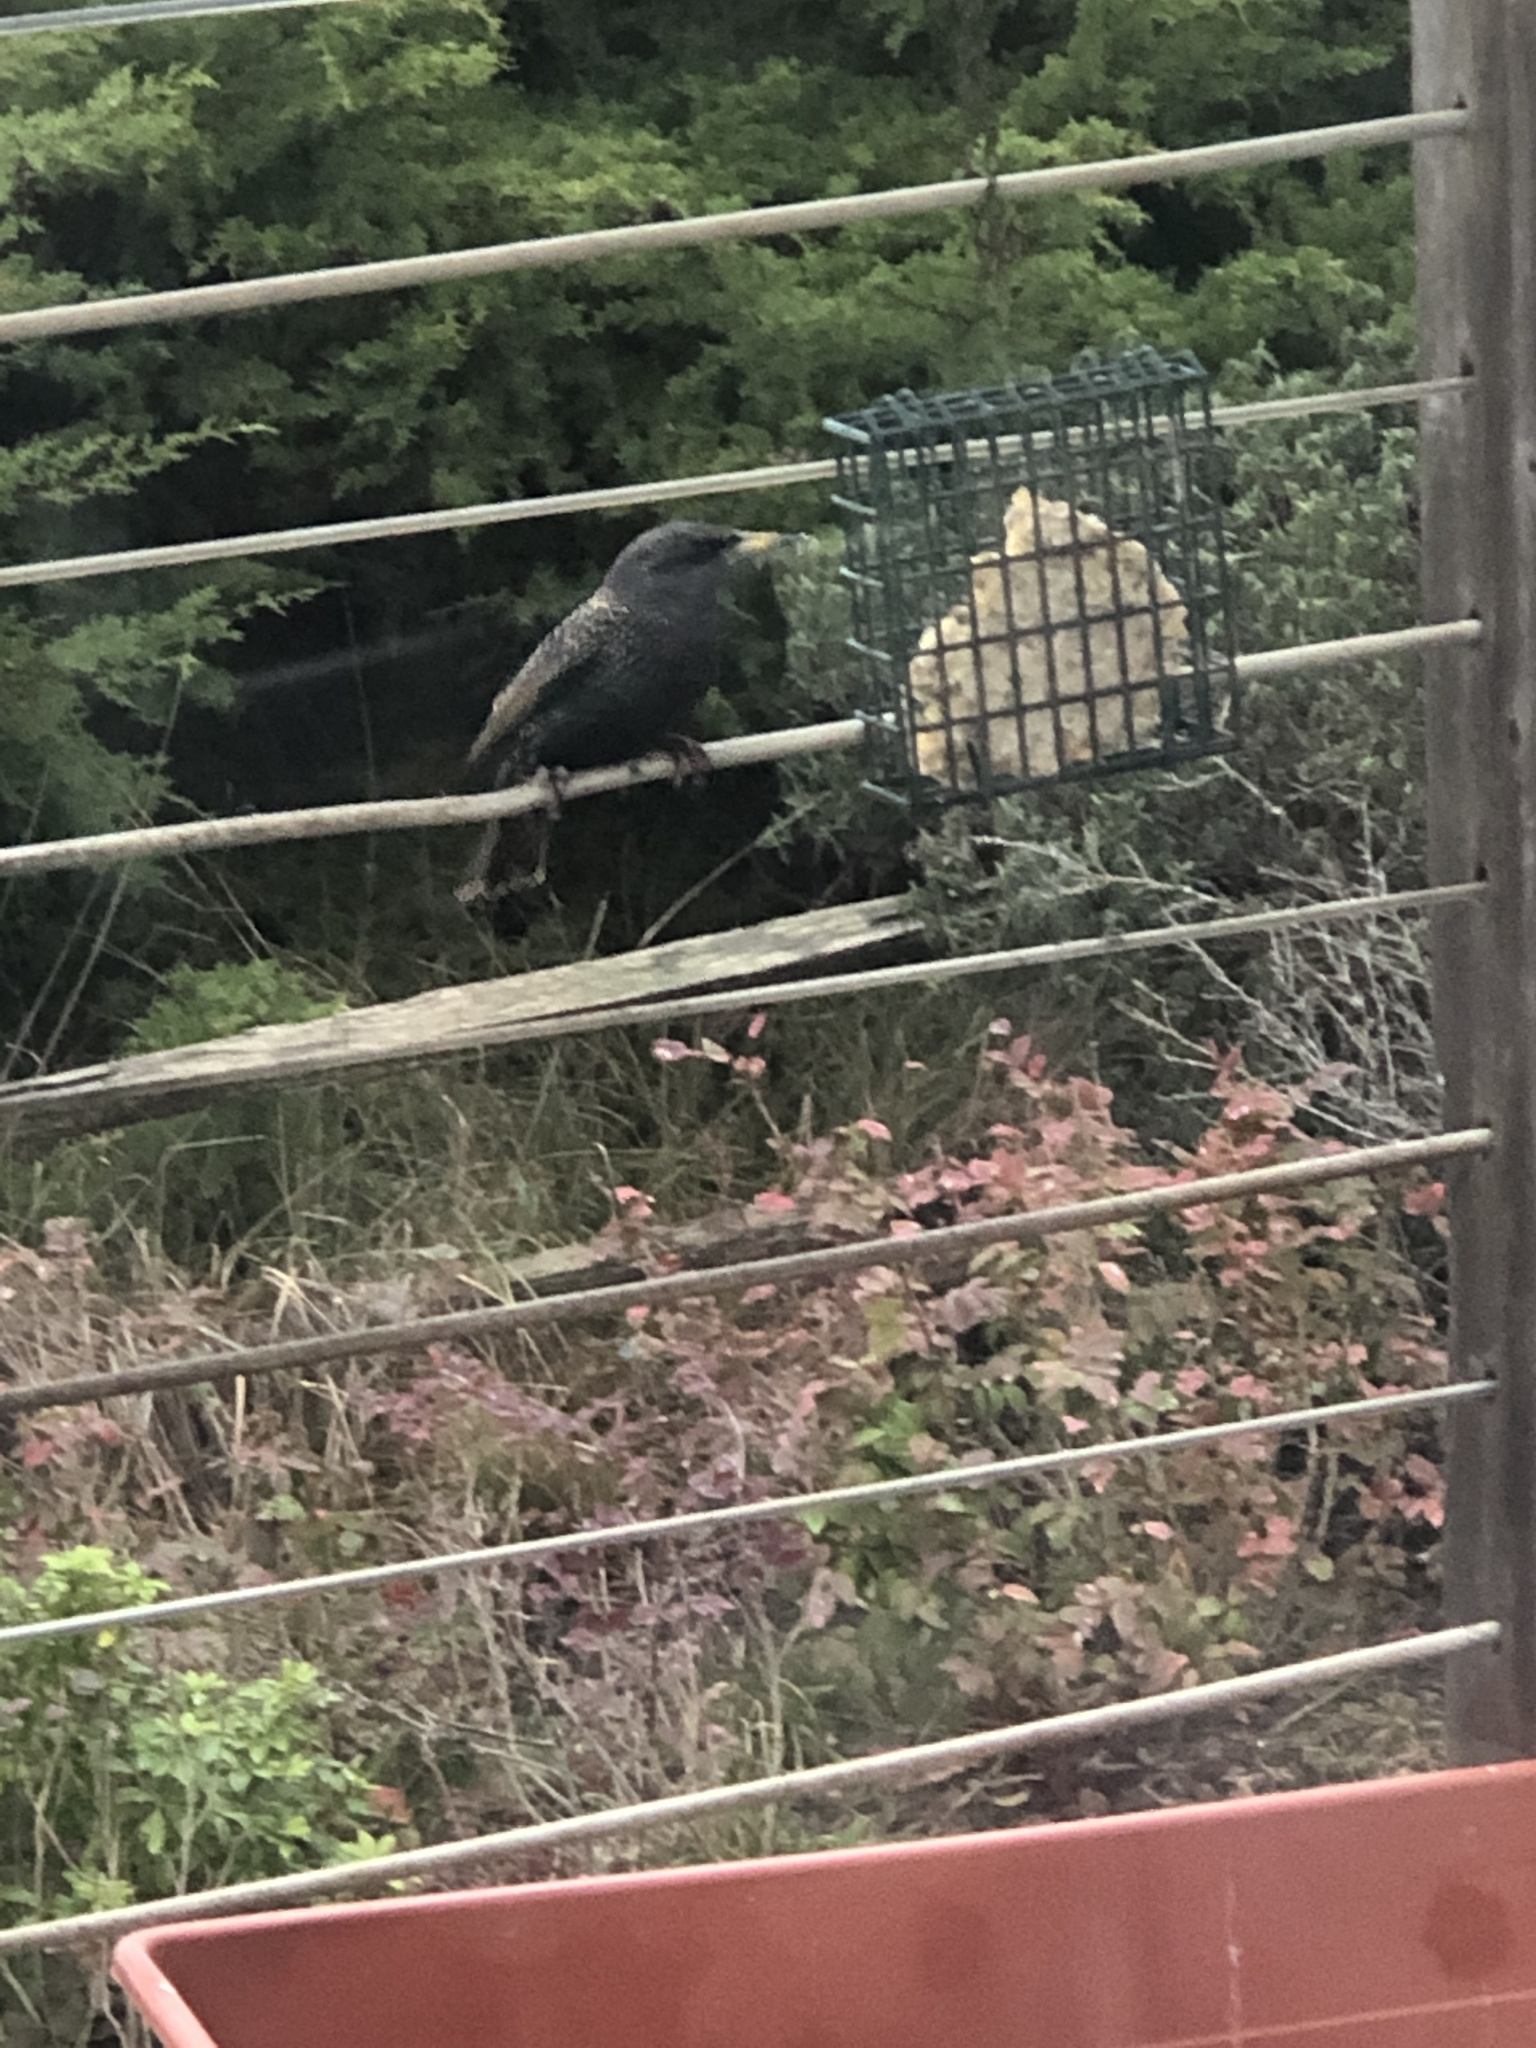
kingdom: Animalia
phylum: Chordata
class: Aves
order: Passeriformes
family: Sturnidae
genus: Sturnus
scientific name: Sturnus vulgaris
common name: Common starling
